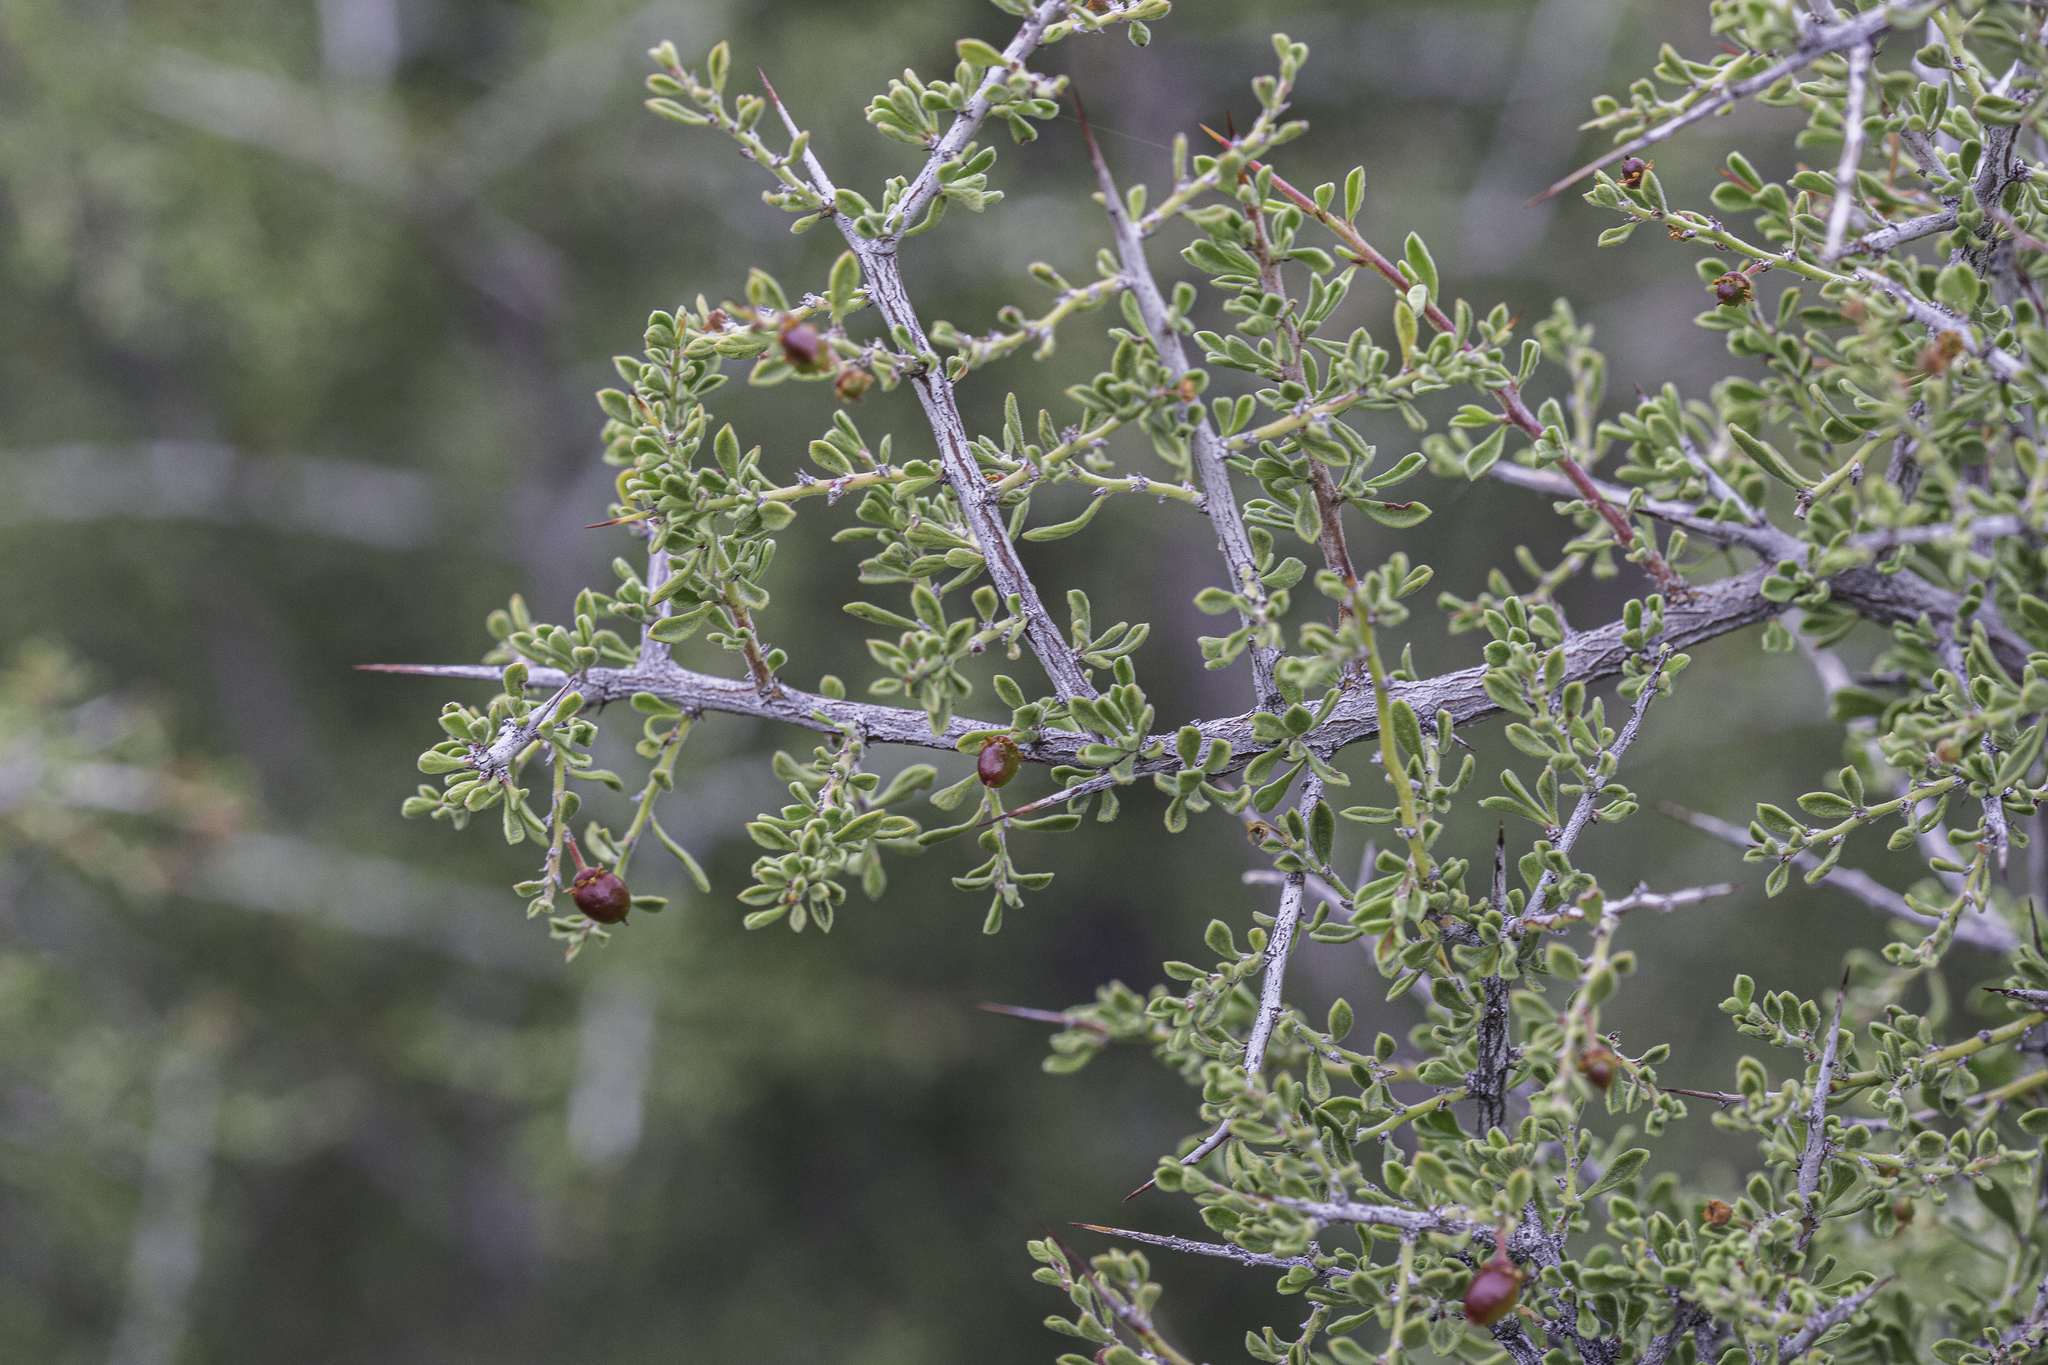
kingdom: Plantae
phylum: Tracheophyta
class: Magnoliopsida
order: Rosales
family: Rhamnaceae
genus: Condalia
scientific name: Condalia warnockii
